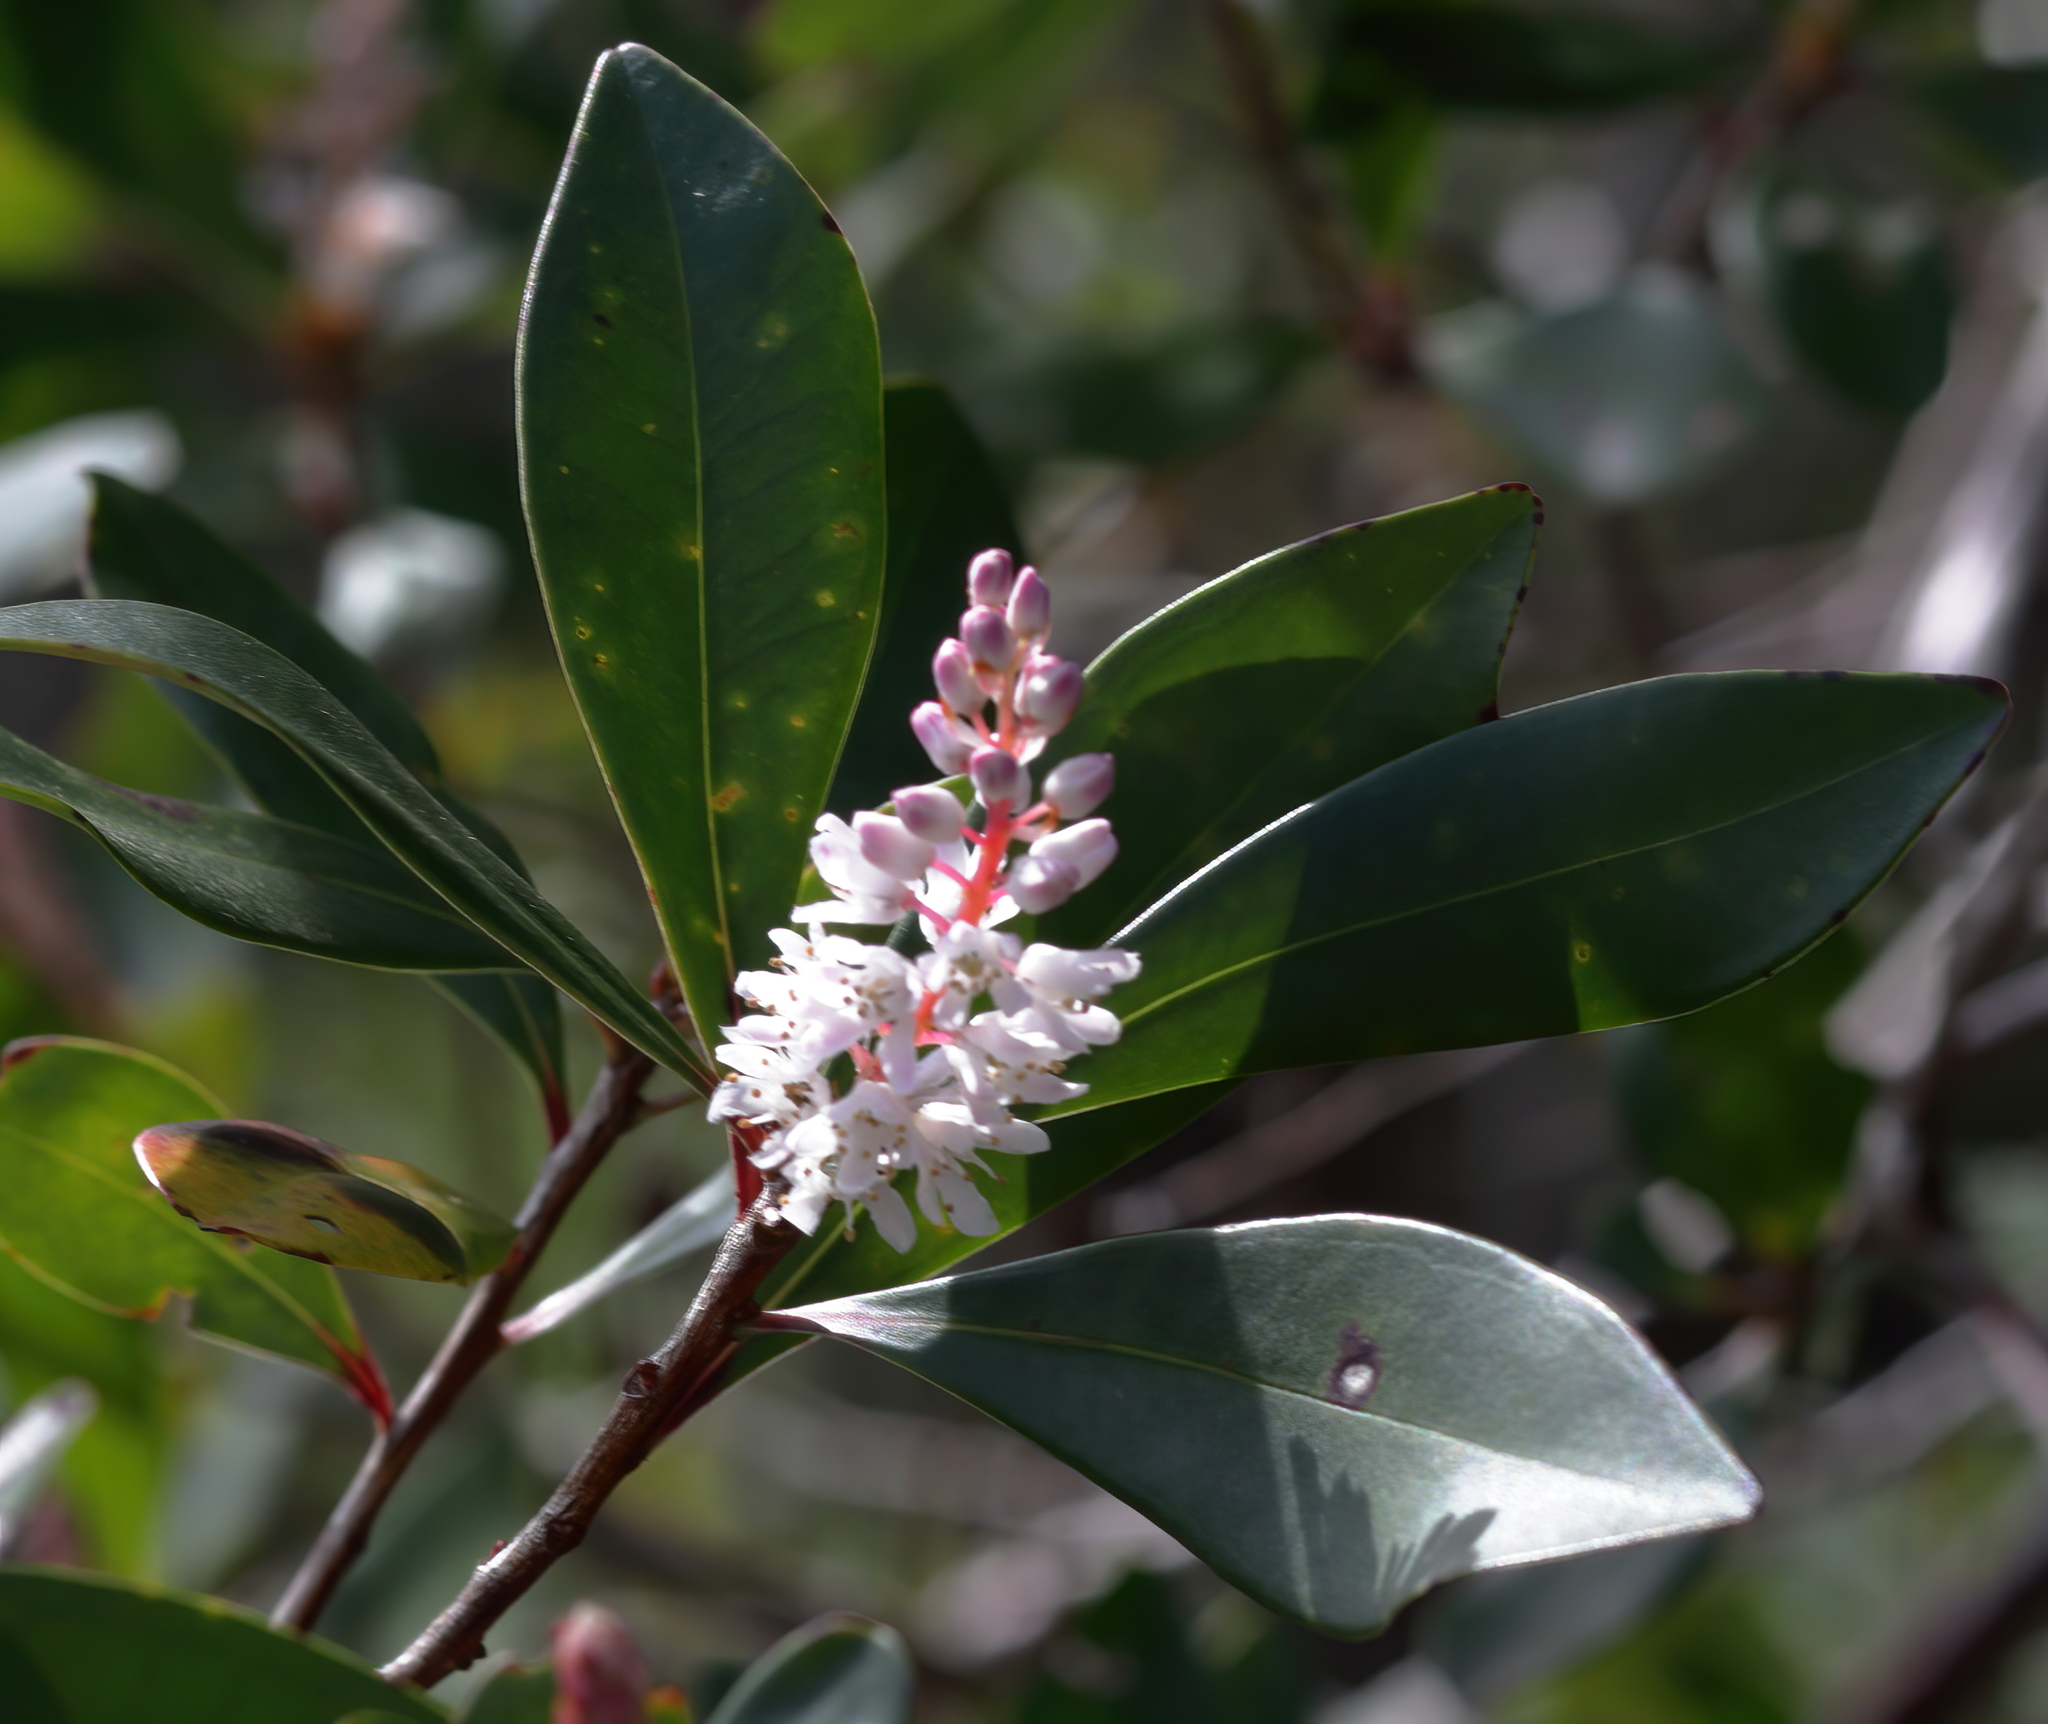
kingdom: Plantae
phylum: Tracheophyta
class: Magnoliopsida
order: Ericales
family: Cyrillaceae
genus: Cliftonia
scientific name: Cliftonia monophylla
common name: Titi
